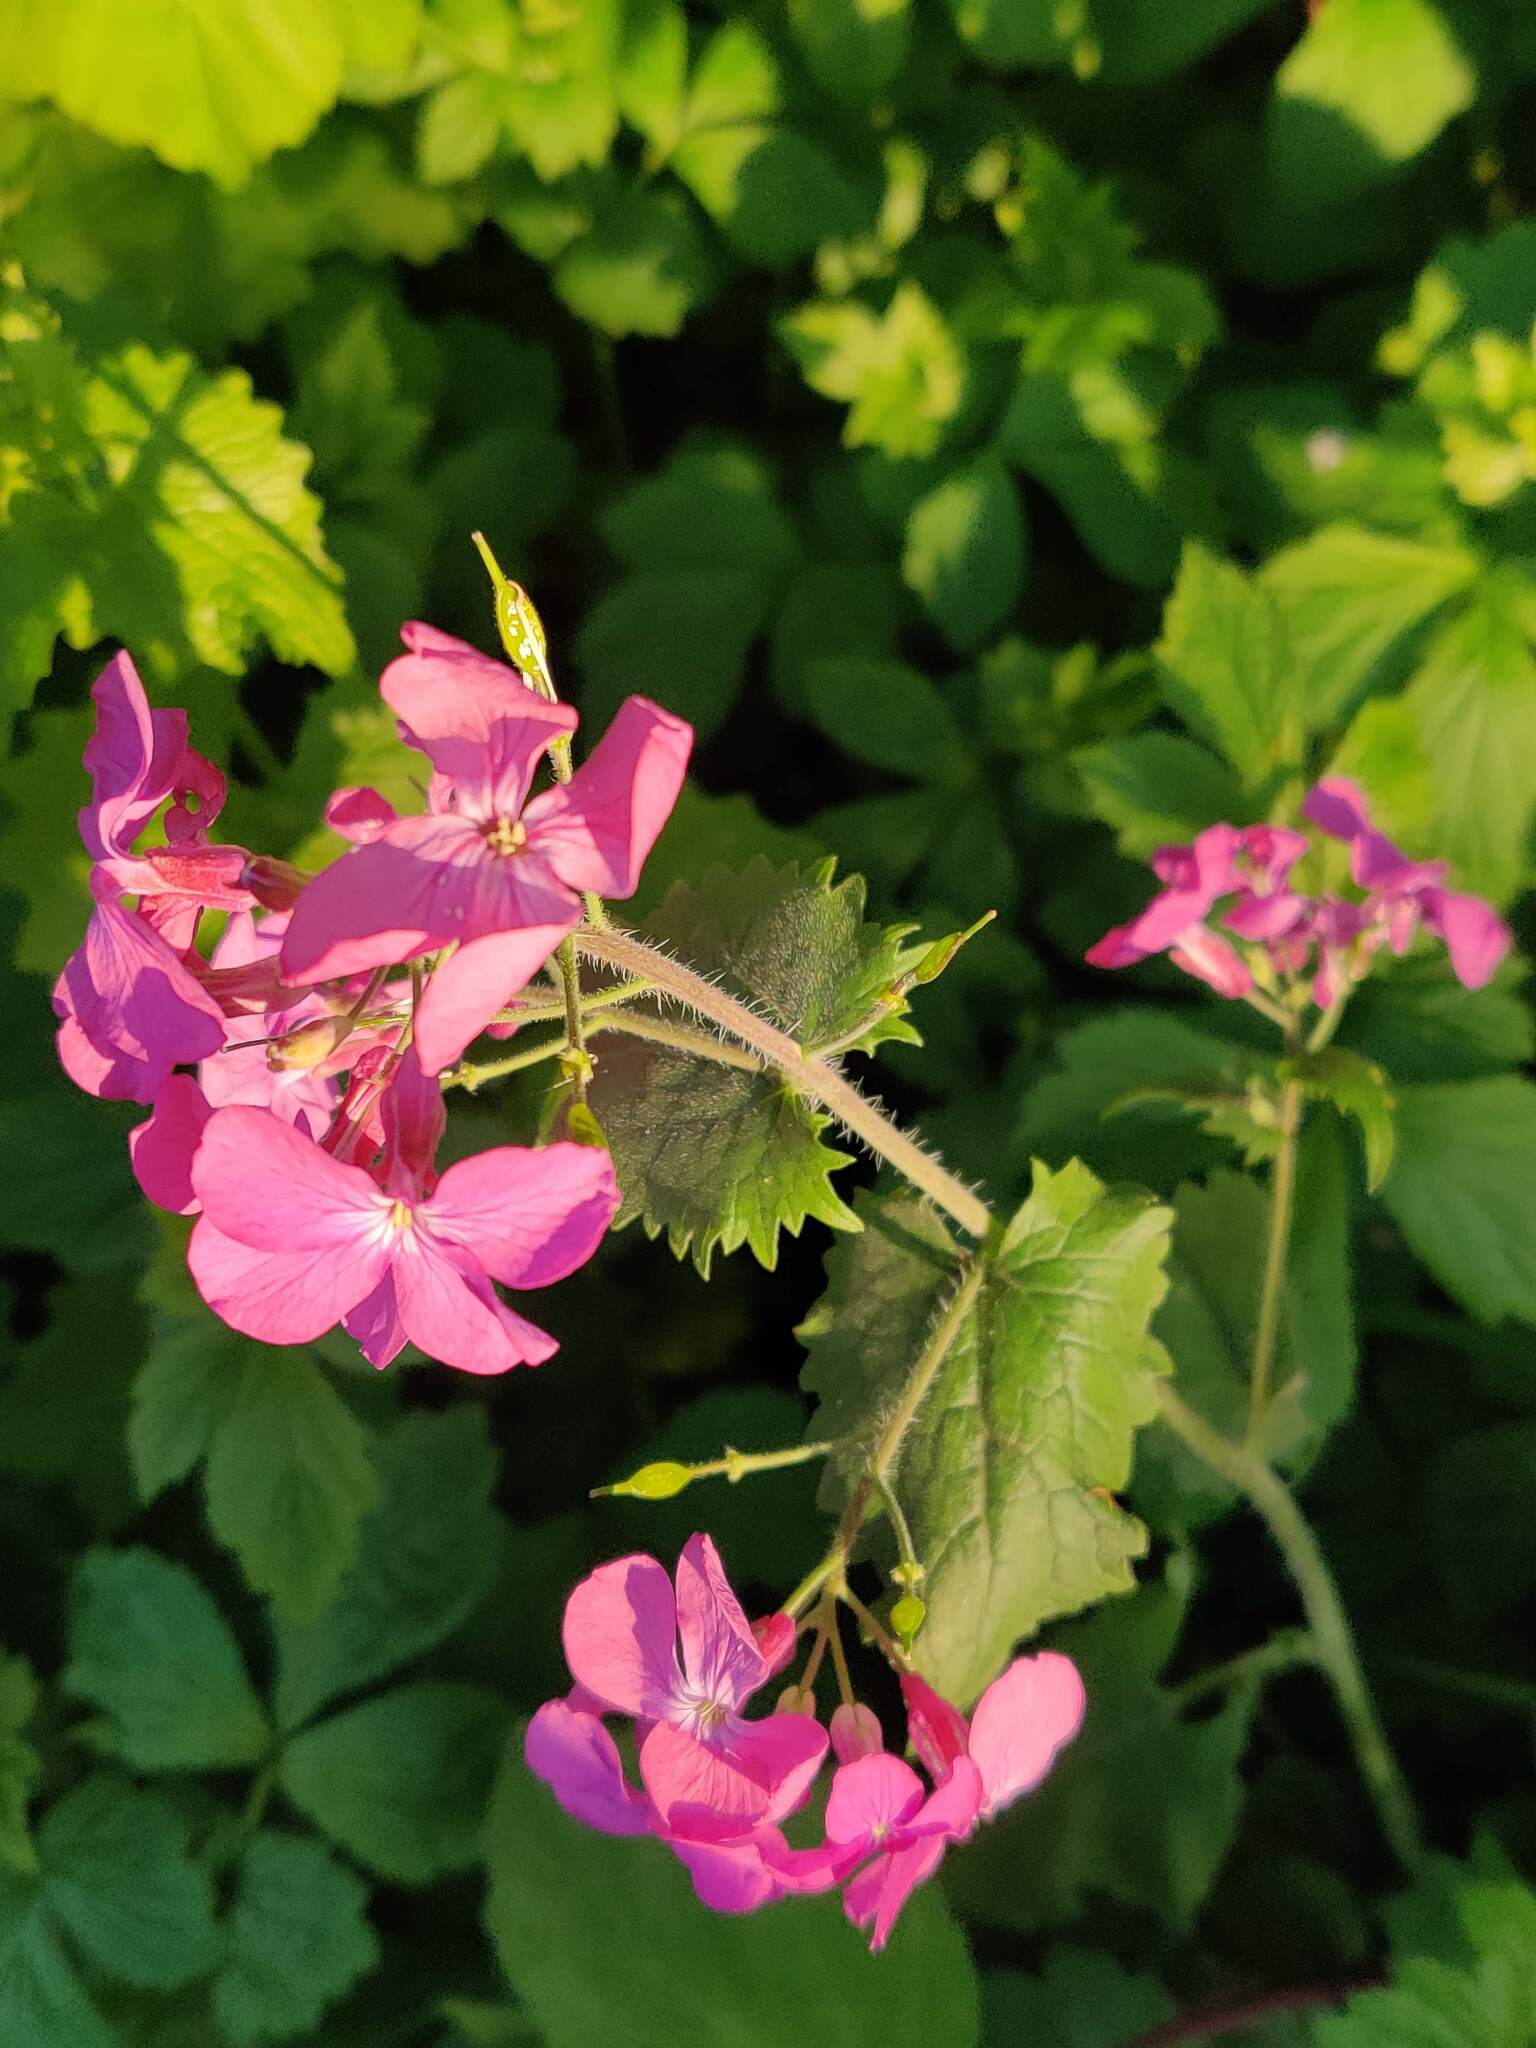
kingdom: Plantae
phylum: Tracheophyta
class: Magnoliopsida
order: Brassicales
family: Brassicaceae
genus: Lunaria
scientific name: Lunaria annua
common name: Honesty
